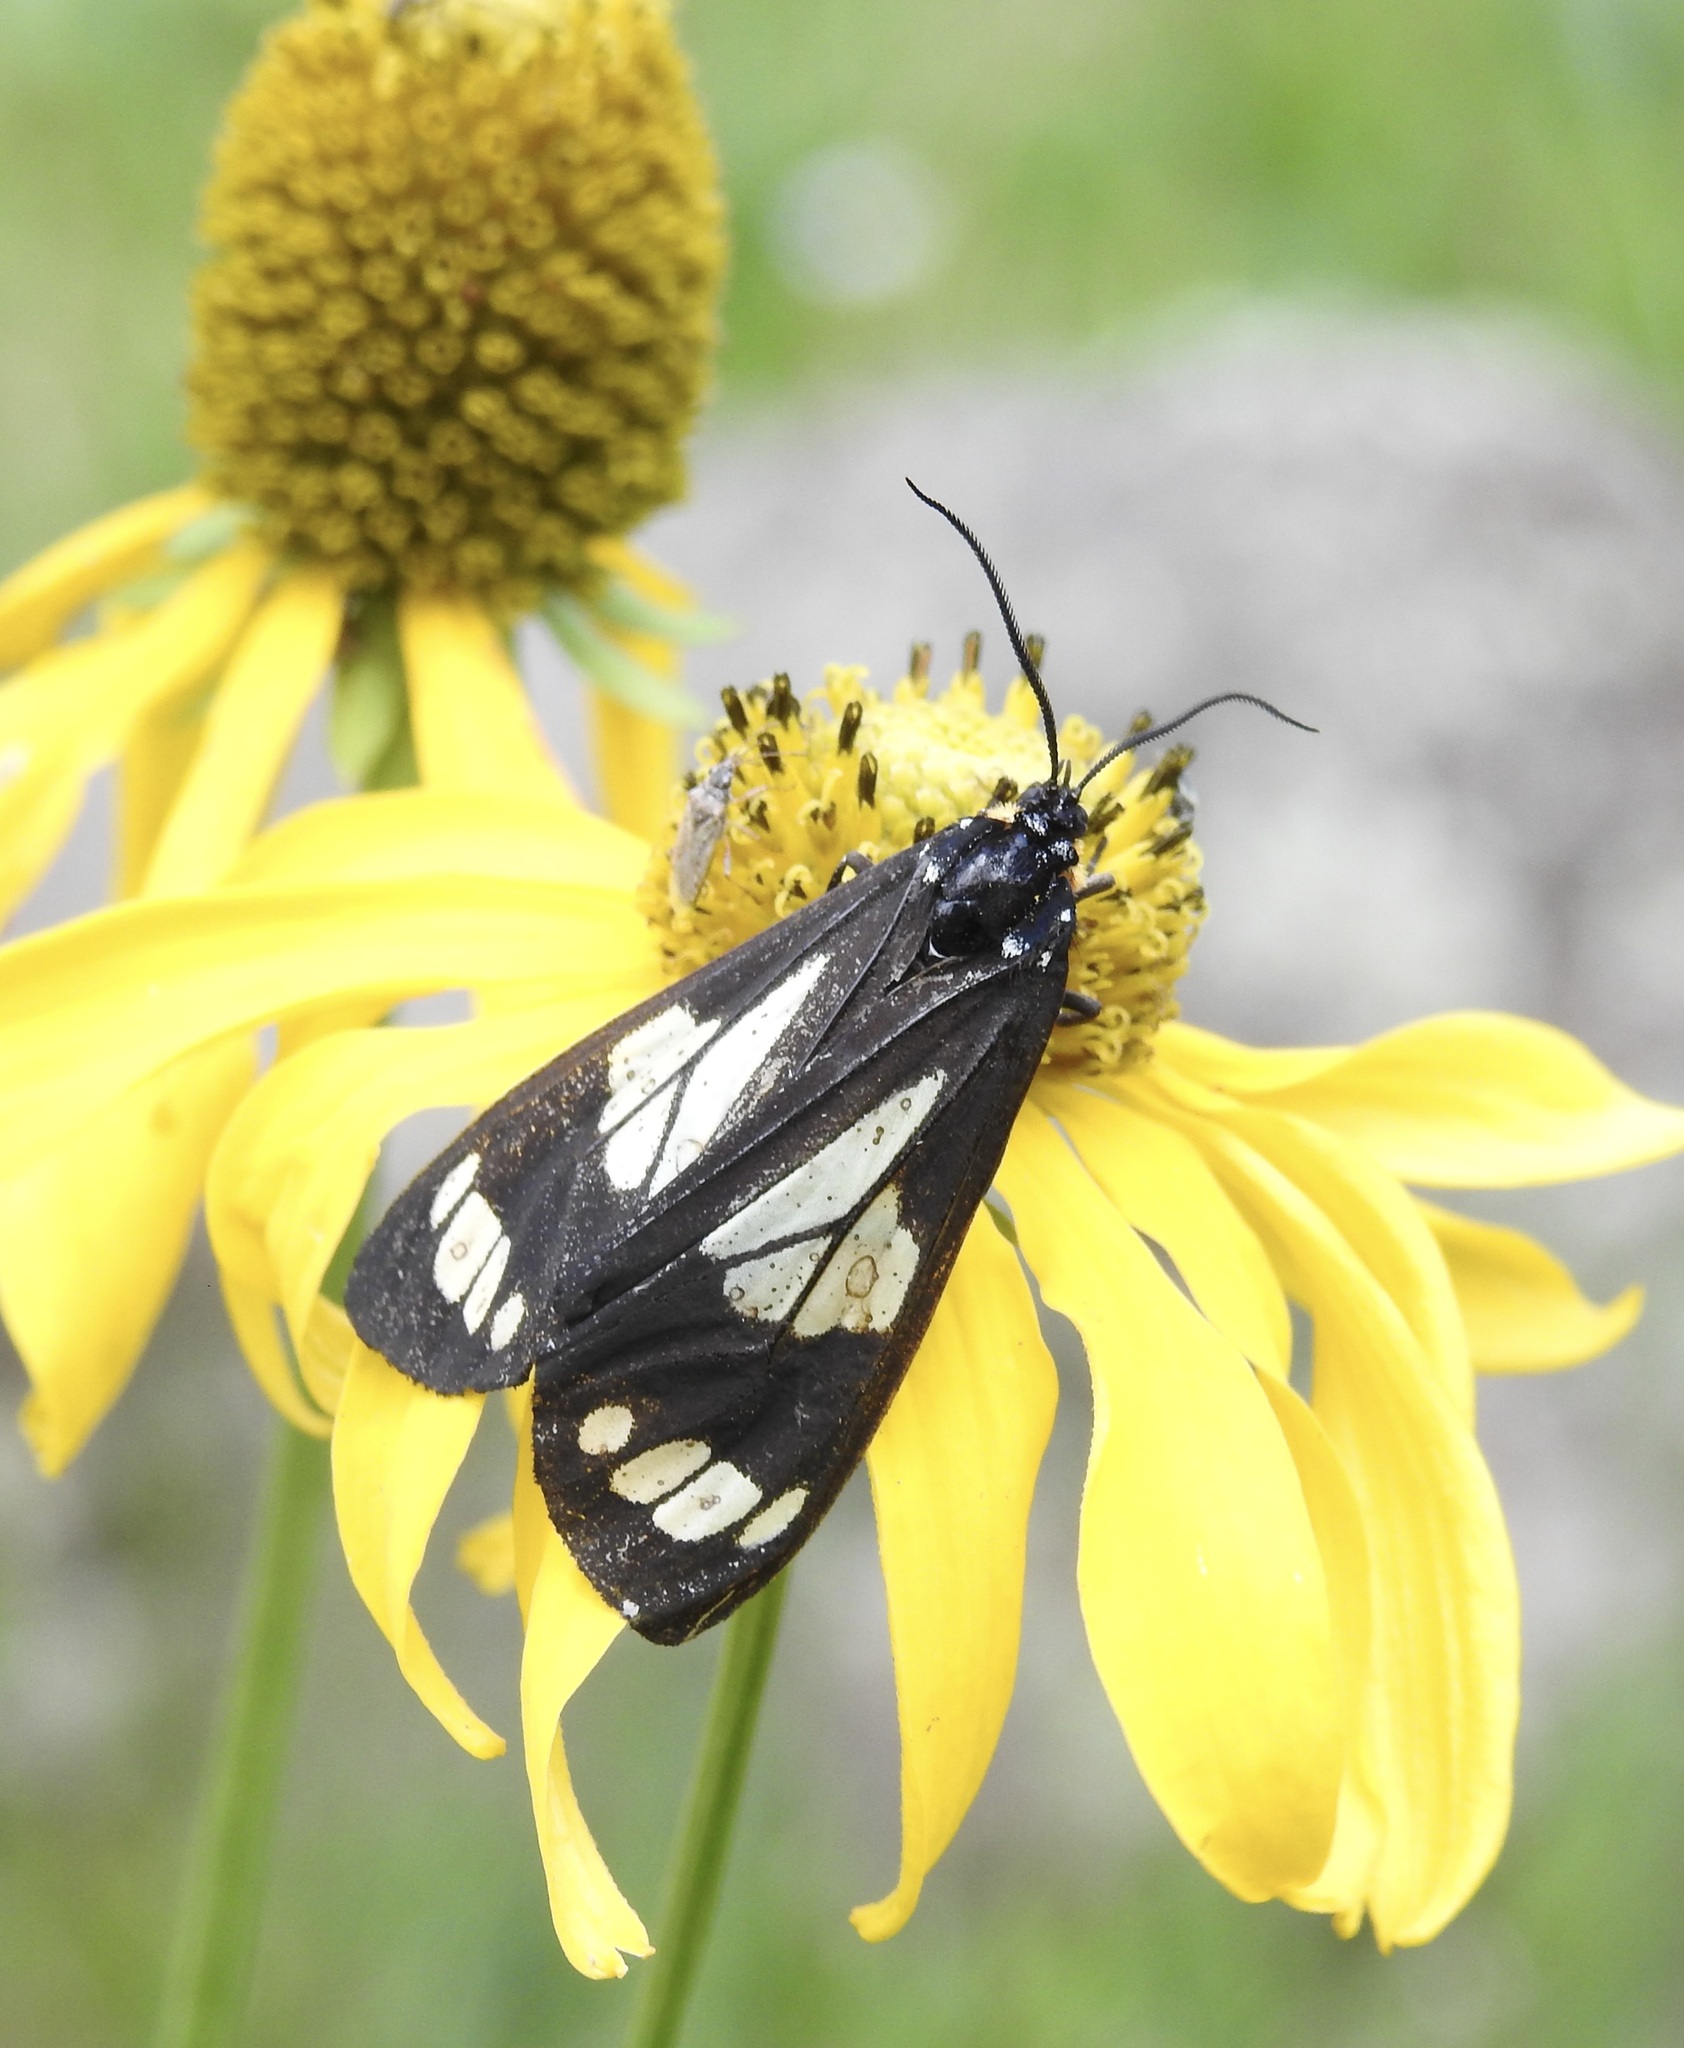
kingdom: Animalia
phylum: Arthropoda
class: Insecta
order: Lepidoptera
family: Erebidae
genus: Gnophaela
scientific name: Gnophaela discreta
